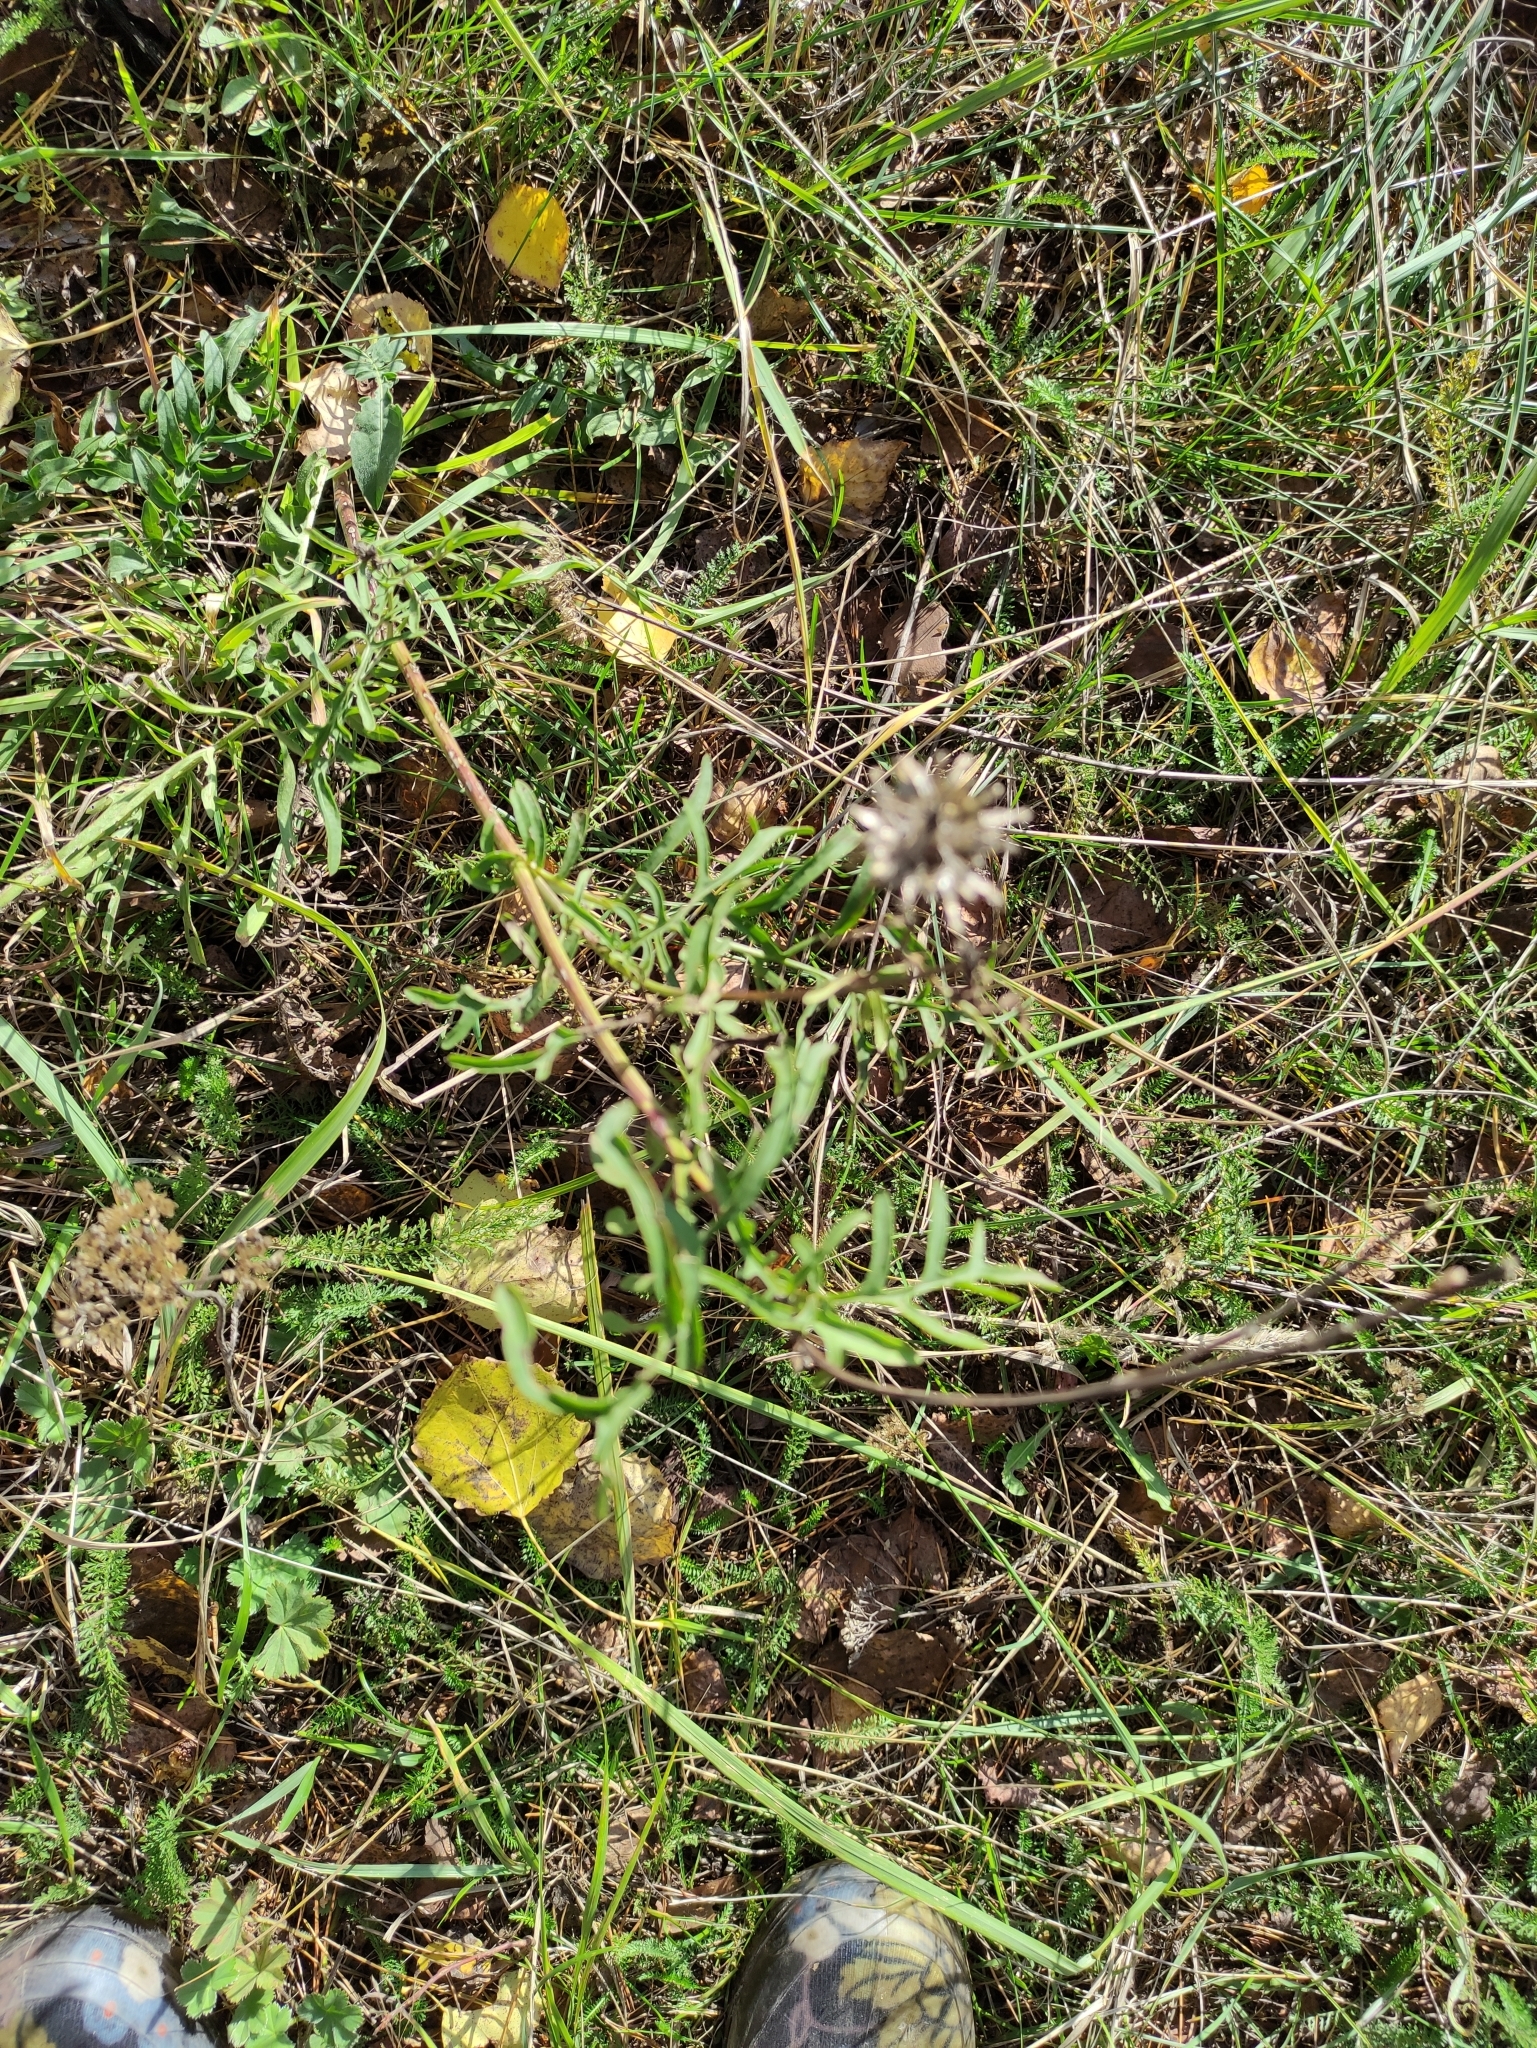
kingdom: Plantae
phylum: Tracheophyta
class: Magnoliopsida
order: Asterales
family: Asteraceae
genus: Centaurea
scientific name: Centaurea scabiosa
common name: Greater knapweed
